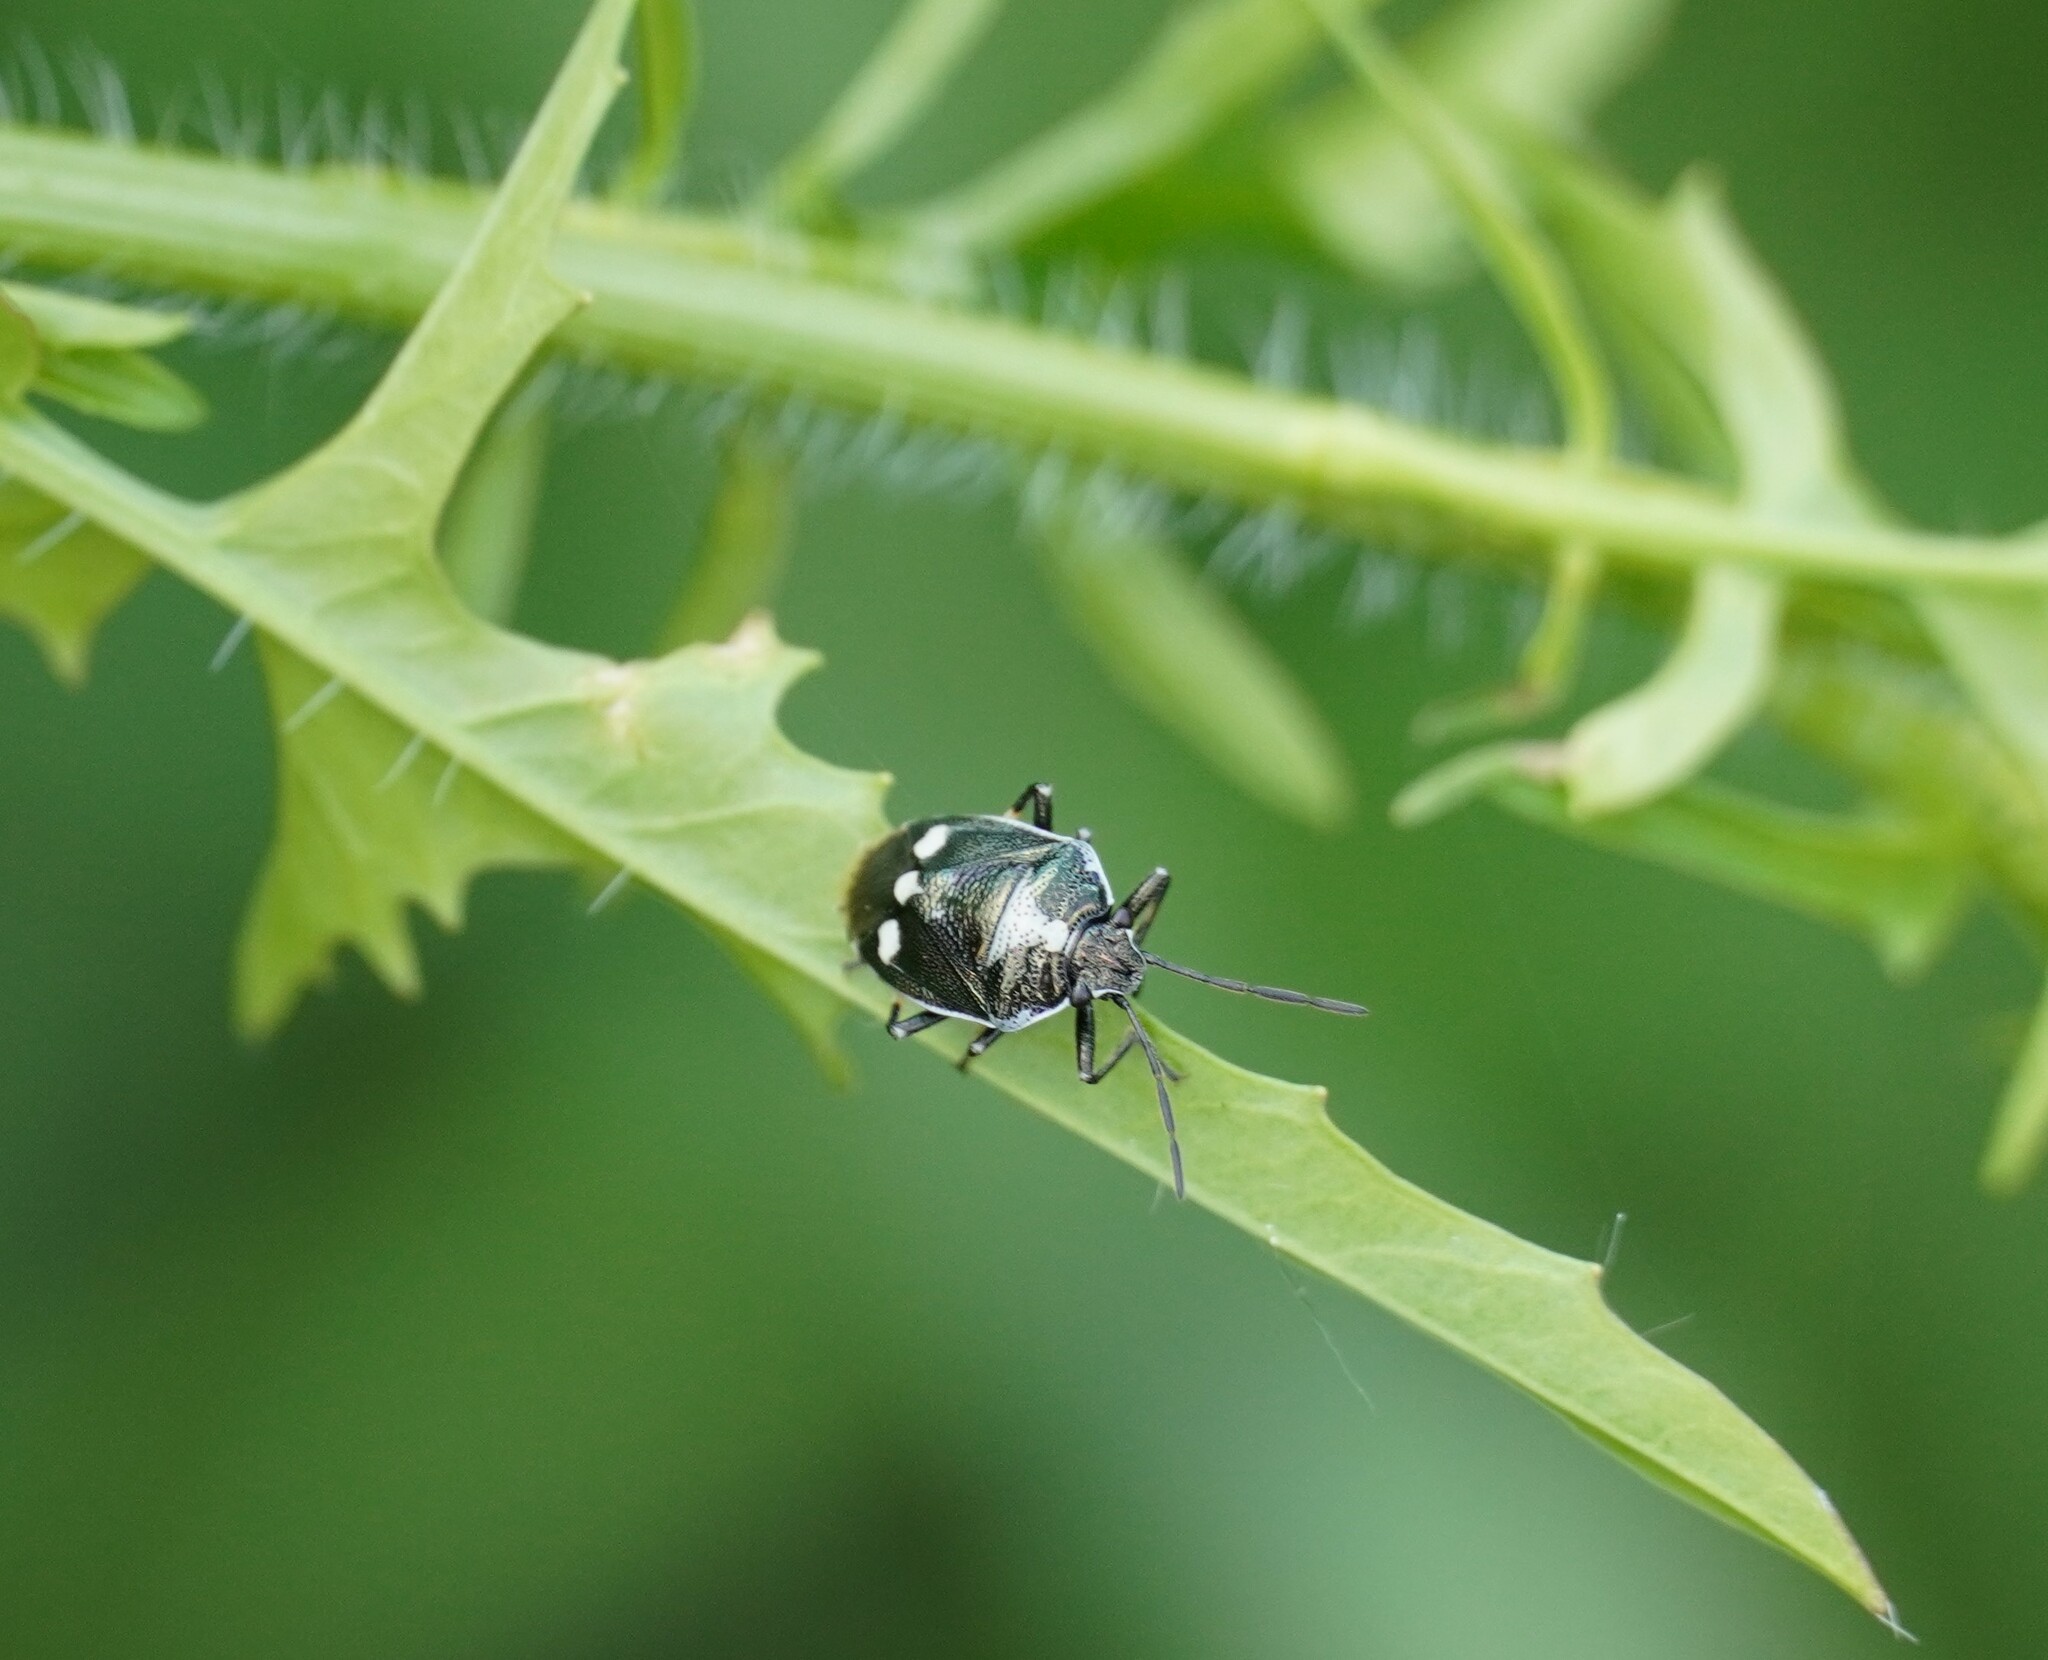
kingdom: Animalia
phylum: Arthropoda
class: Insecta
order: Hemiptera
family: Pentatomidae
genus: Eurydema
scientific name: Eurydema oleracea
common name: Cabbage bug
